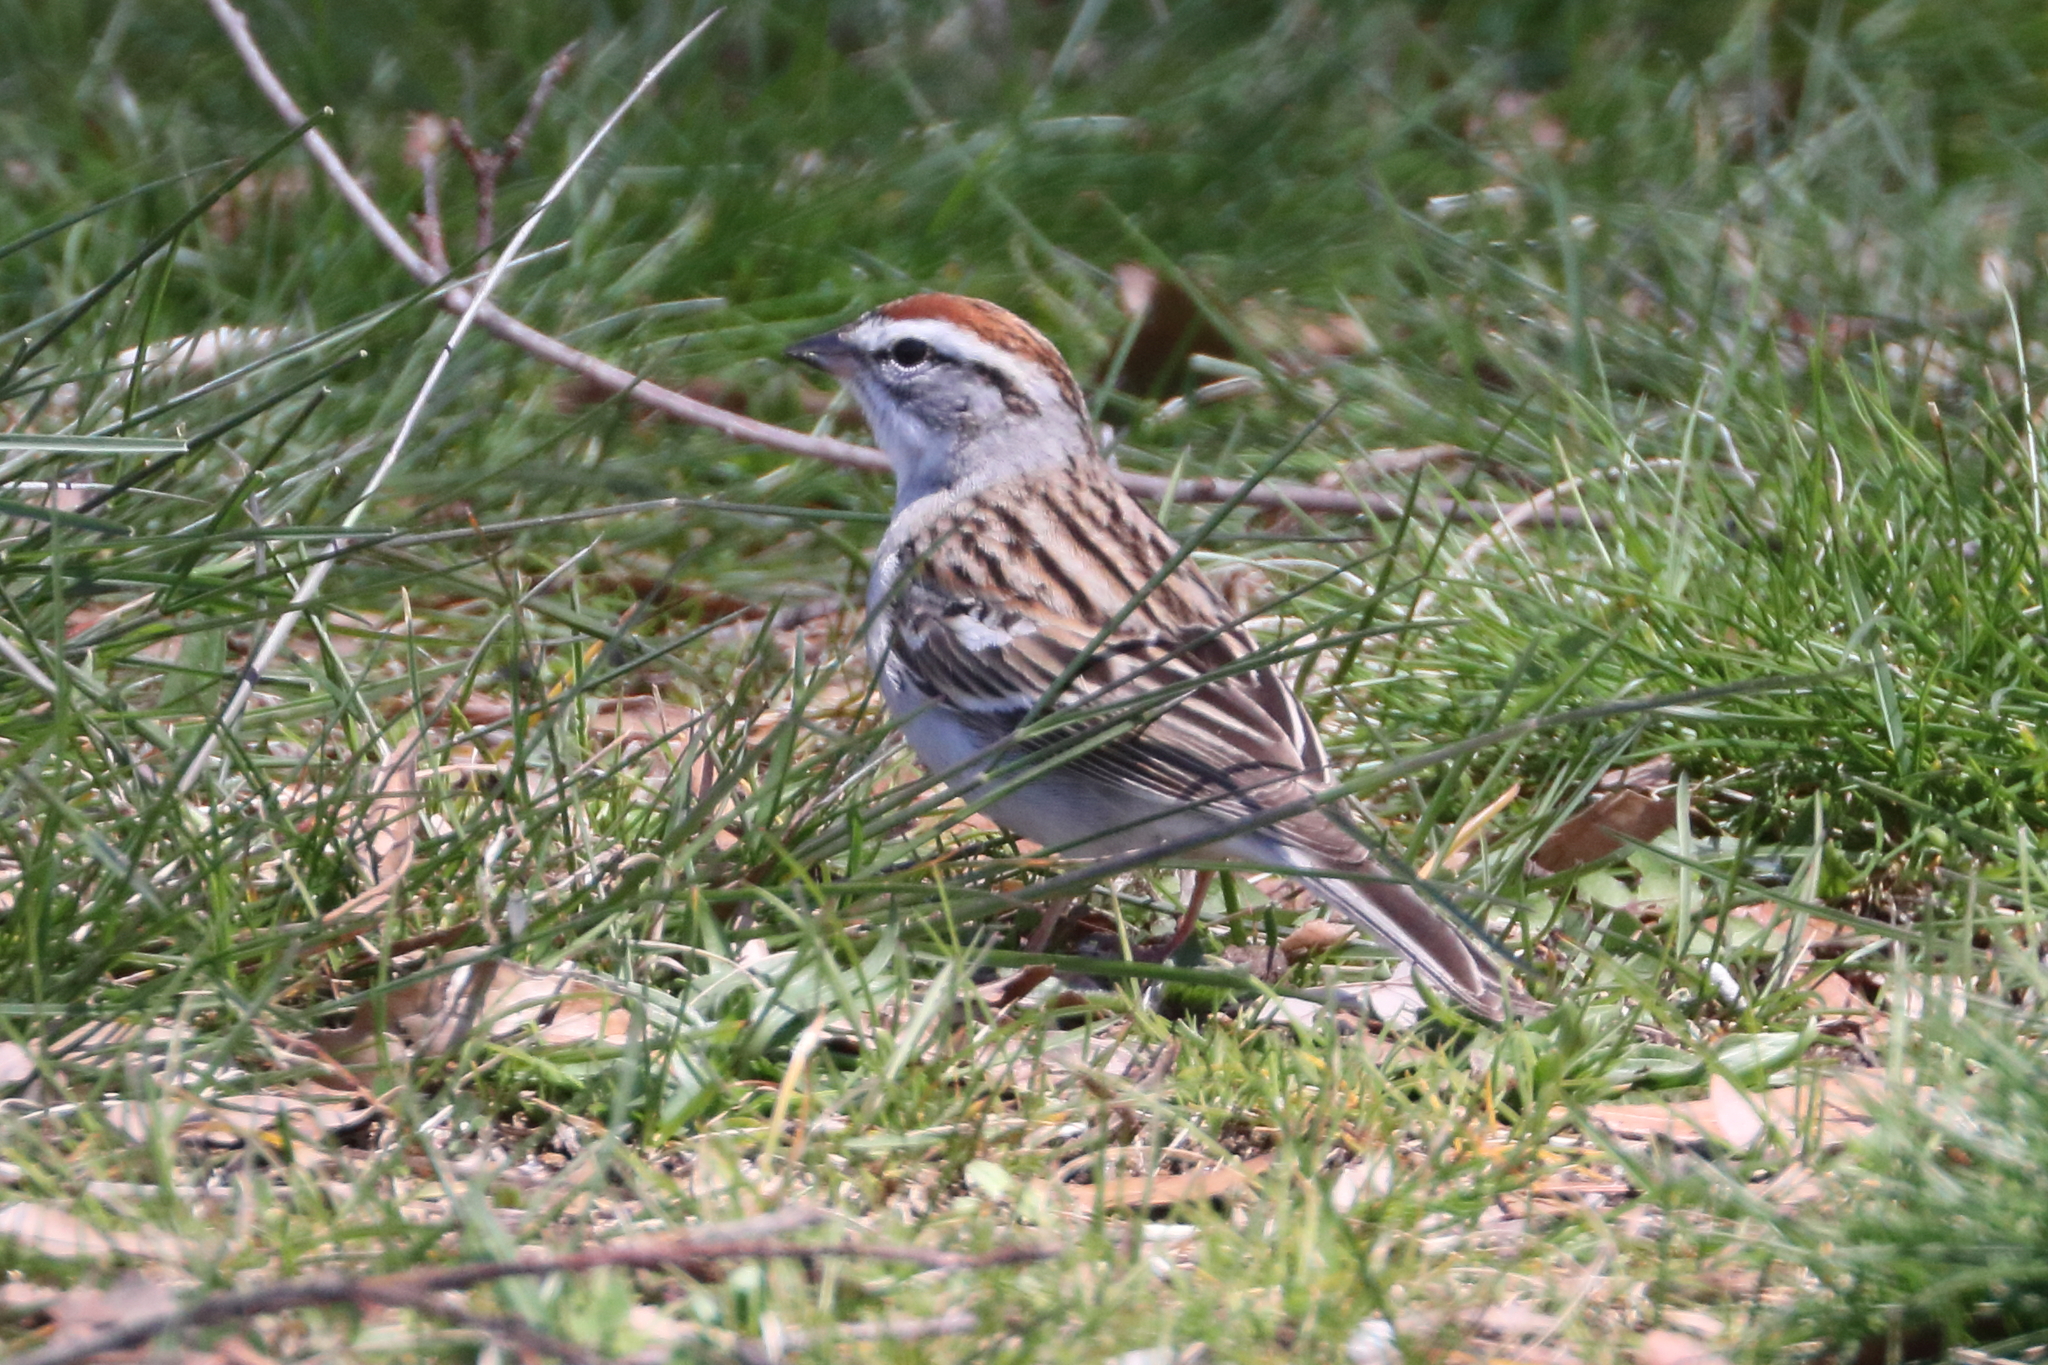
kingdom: Animalia
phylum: Chordata
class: Aves
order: Passeriformes
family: Passerellidae
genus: Spizella
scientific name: Spizella passerina
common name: Chipping sparrow
